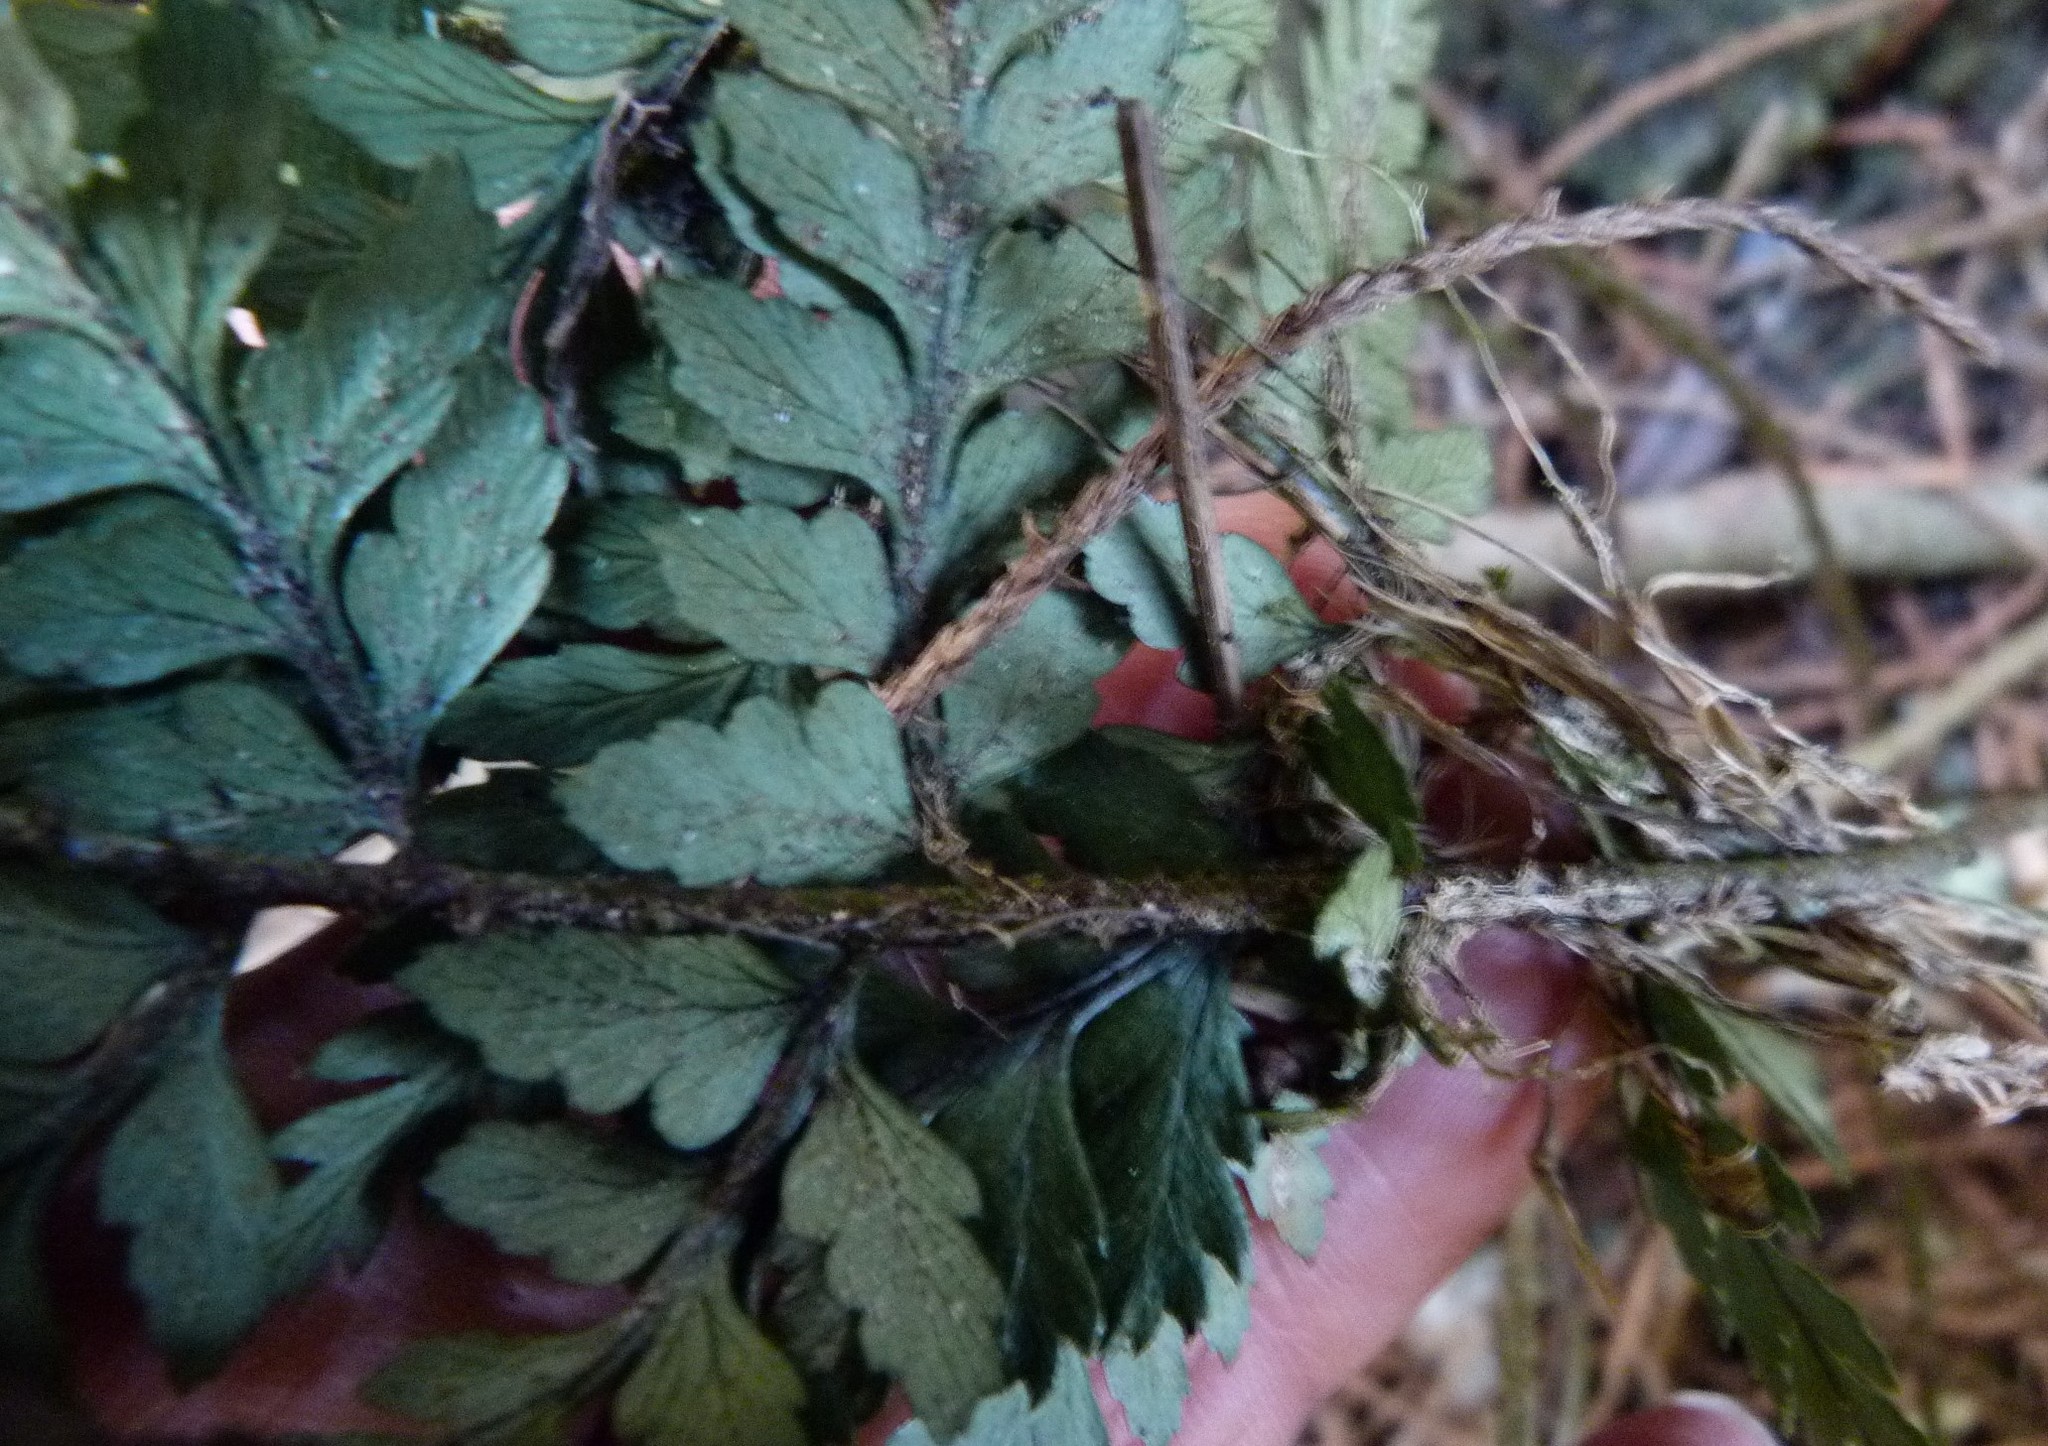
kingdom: Plantae
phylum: Tracheophyta
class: Polypodiopsida
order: Polypodiales
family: Dryopteridaceae
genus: Polystichum
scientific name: Polystichum neozelandicum
